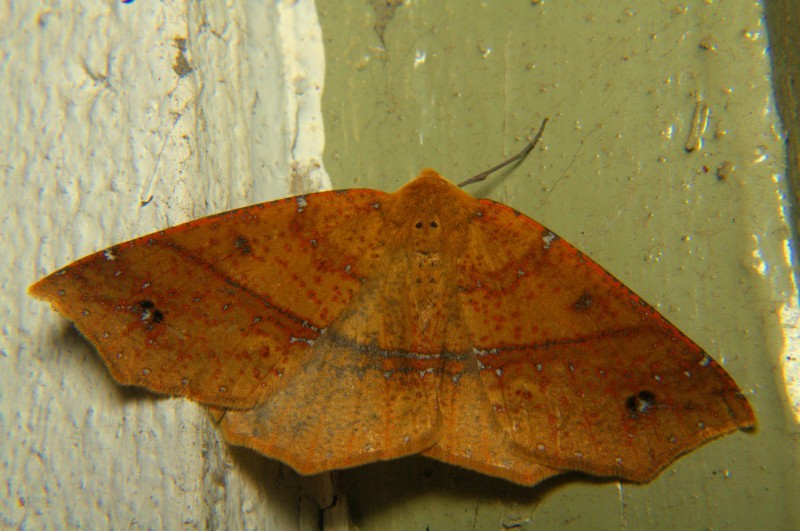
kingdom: Animalia
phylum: Arthropoda
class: Insecta
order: Lepidoptera
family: Geometridae
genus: Psyra
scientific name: Psyra spurcataria
